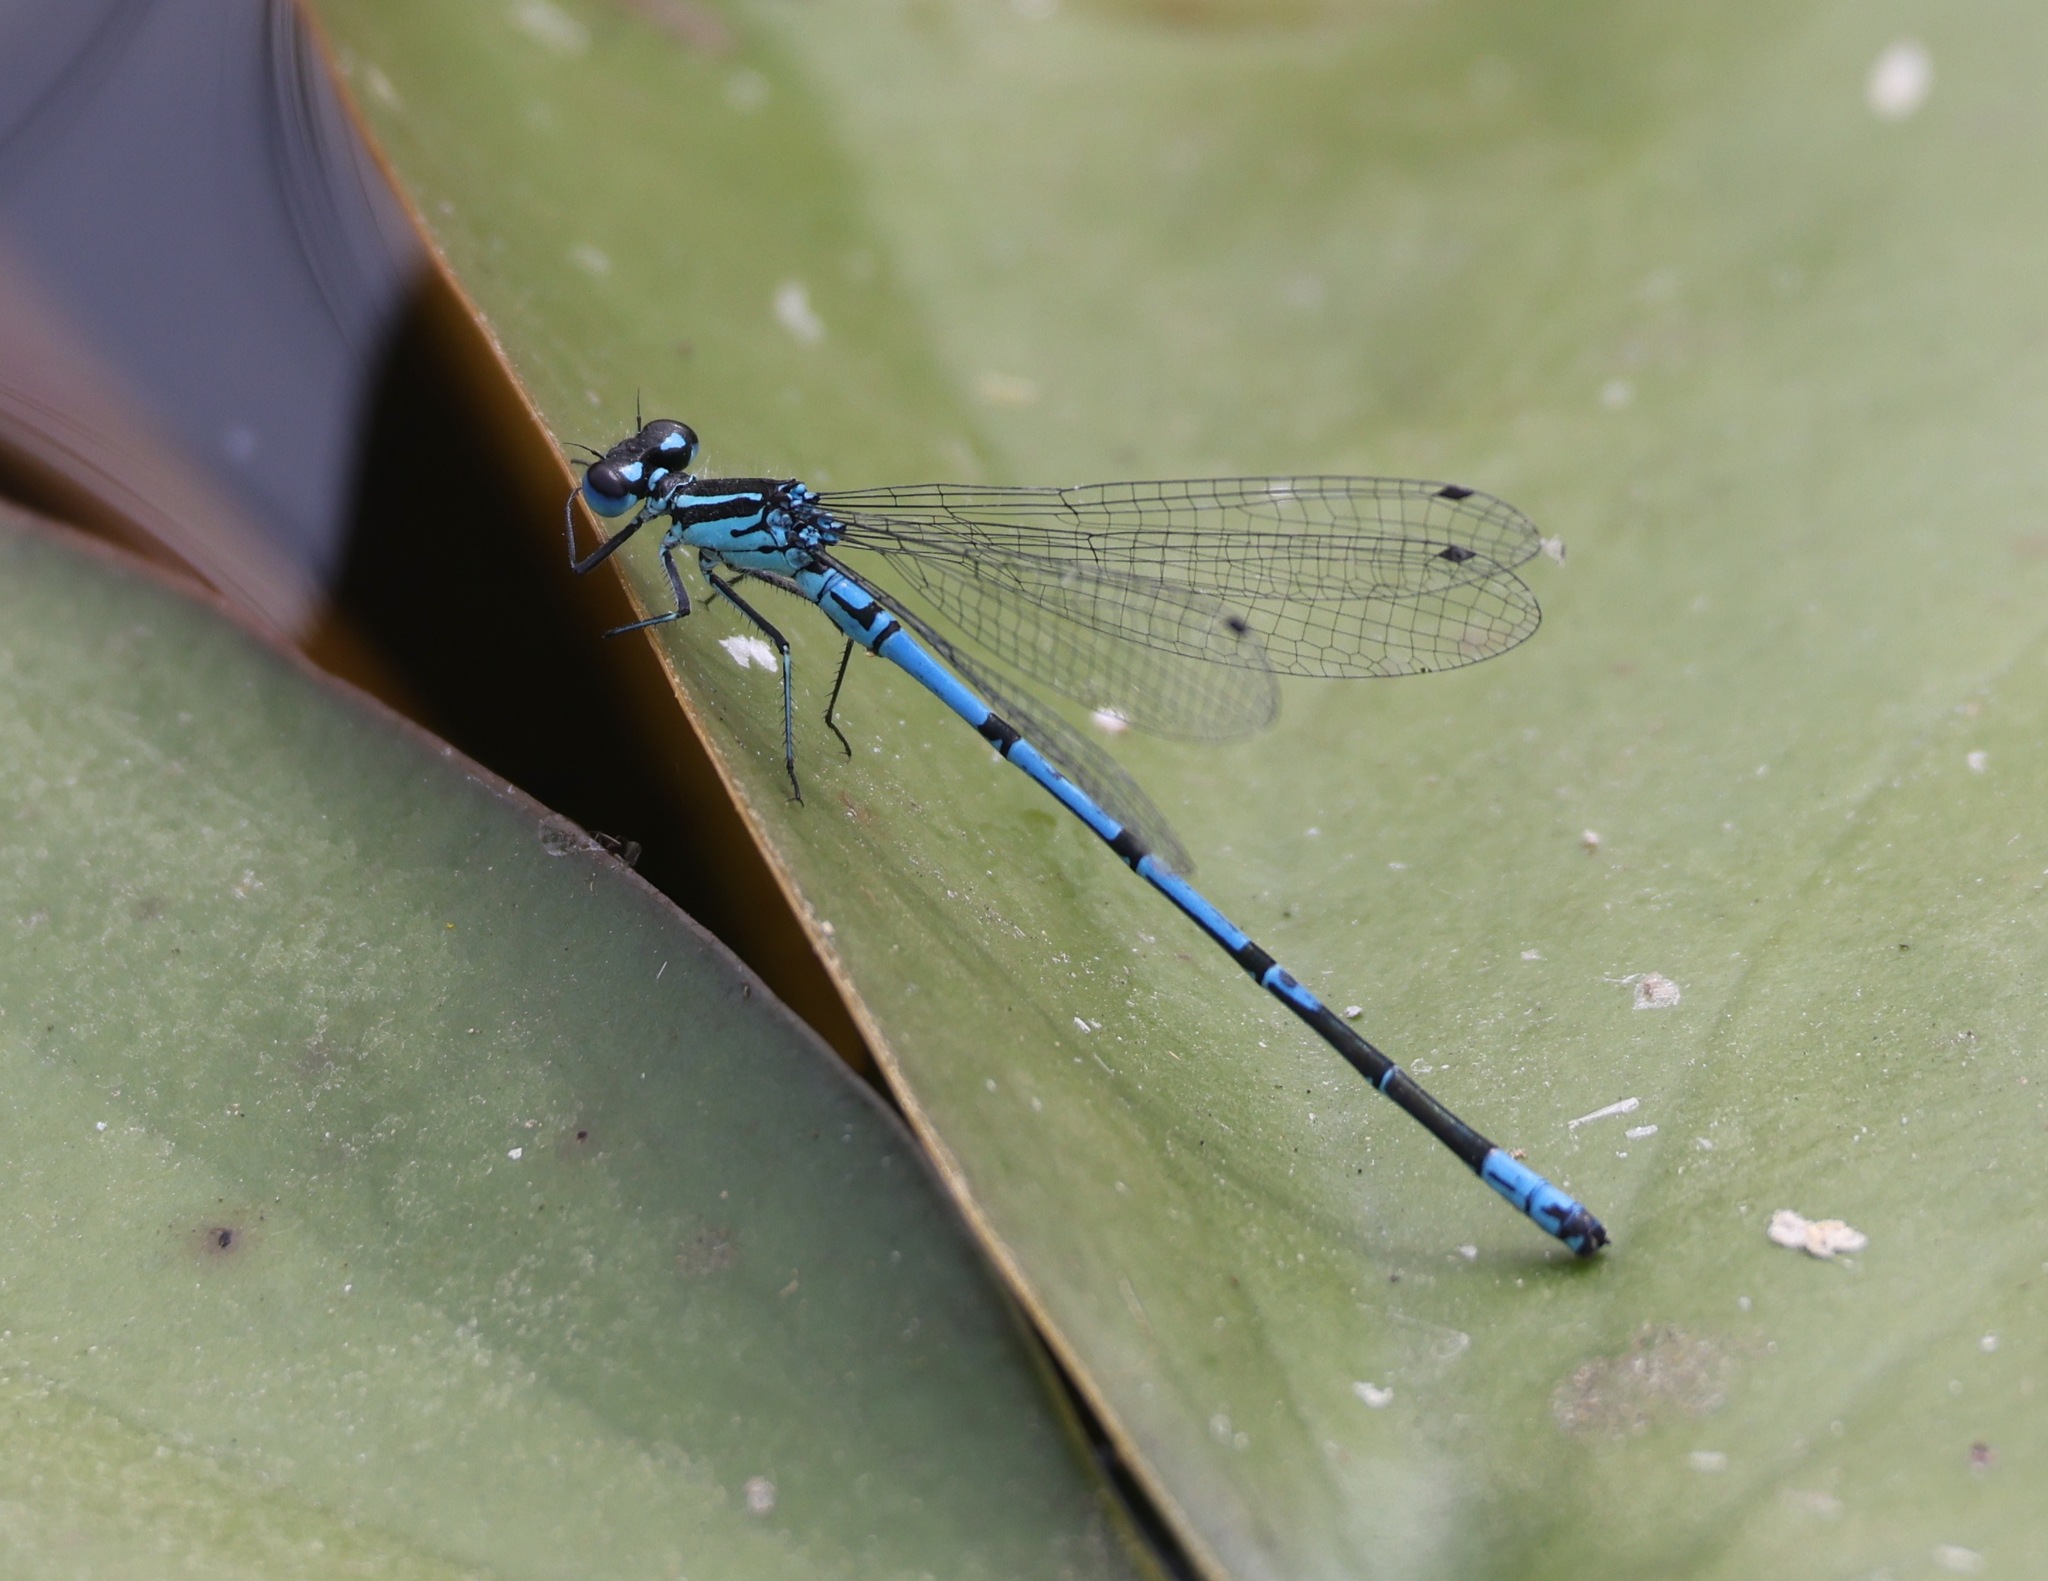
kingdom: Animalia
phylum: Arthropoda
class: Insecta
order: Odonata
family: Coenagrionidae
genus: Coenagrion
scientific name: Coenagrion puella
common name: Azure damselfly
